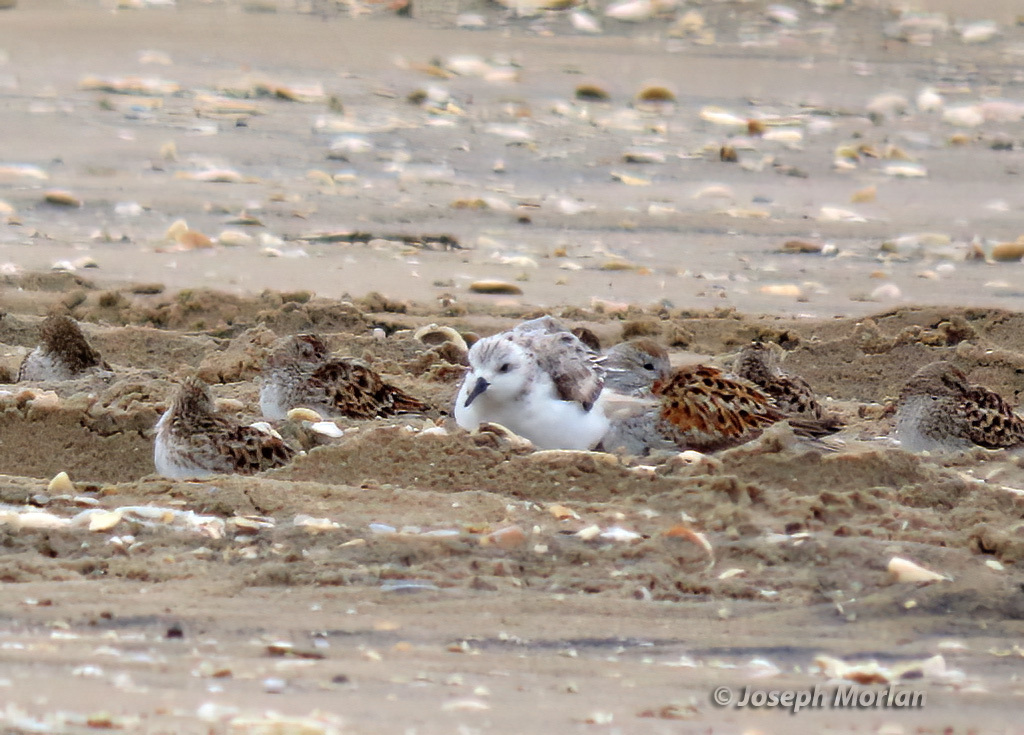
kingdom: Animalia
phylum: Chordata
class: Aves
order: Charadriiformes
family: Scolopacidae
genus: Calidris
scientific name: Calidris alba
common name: Sanderling
